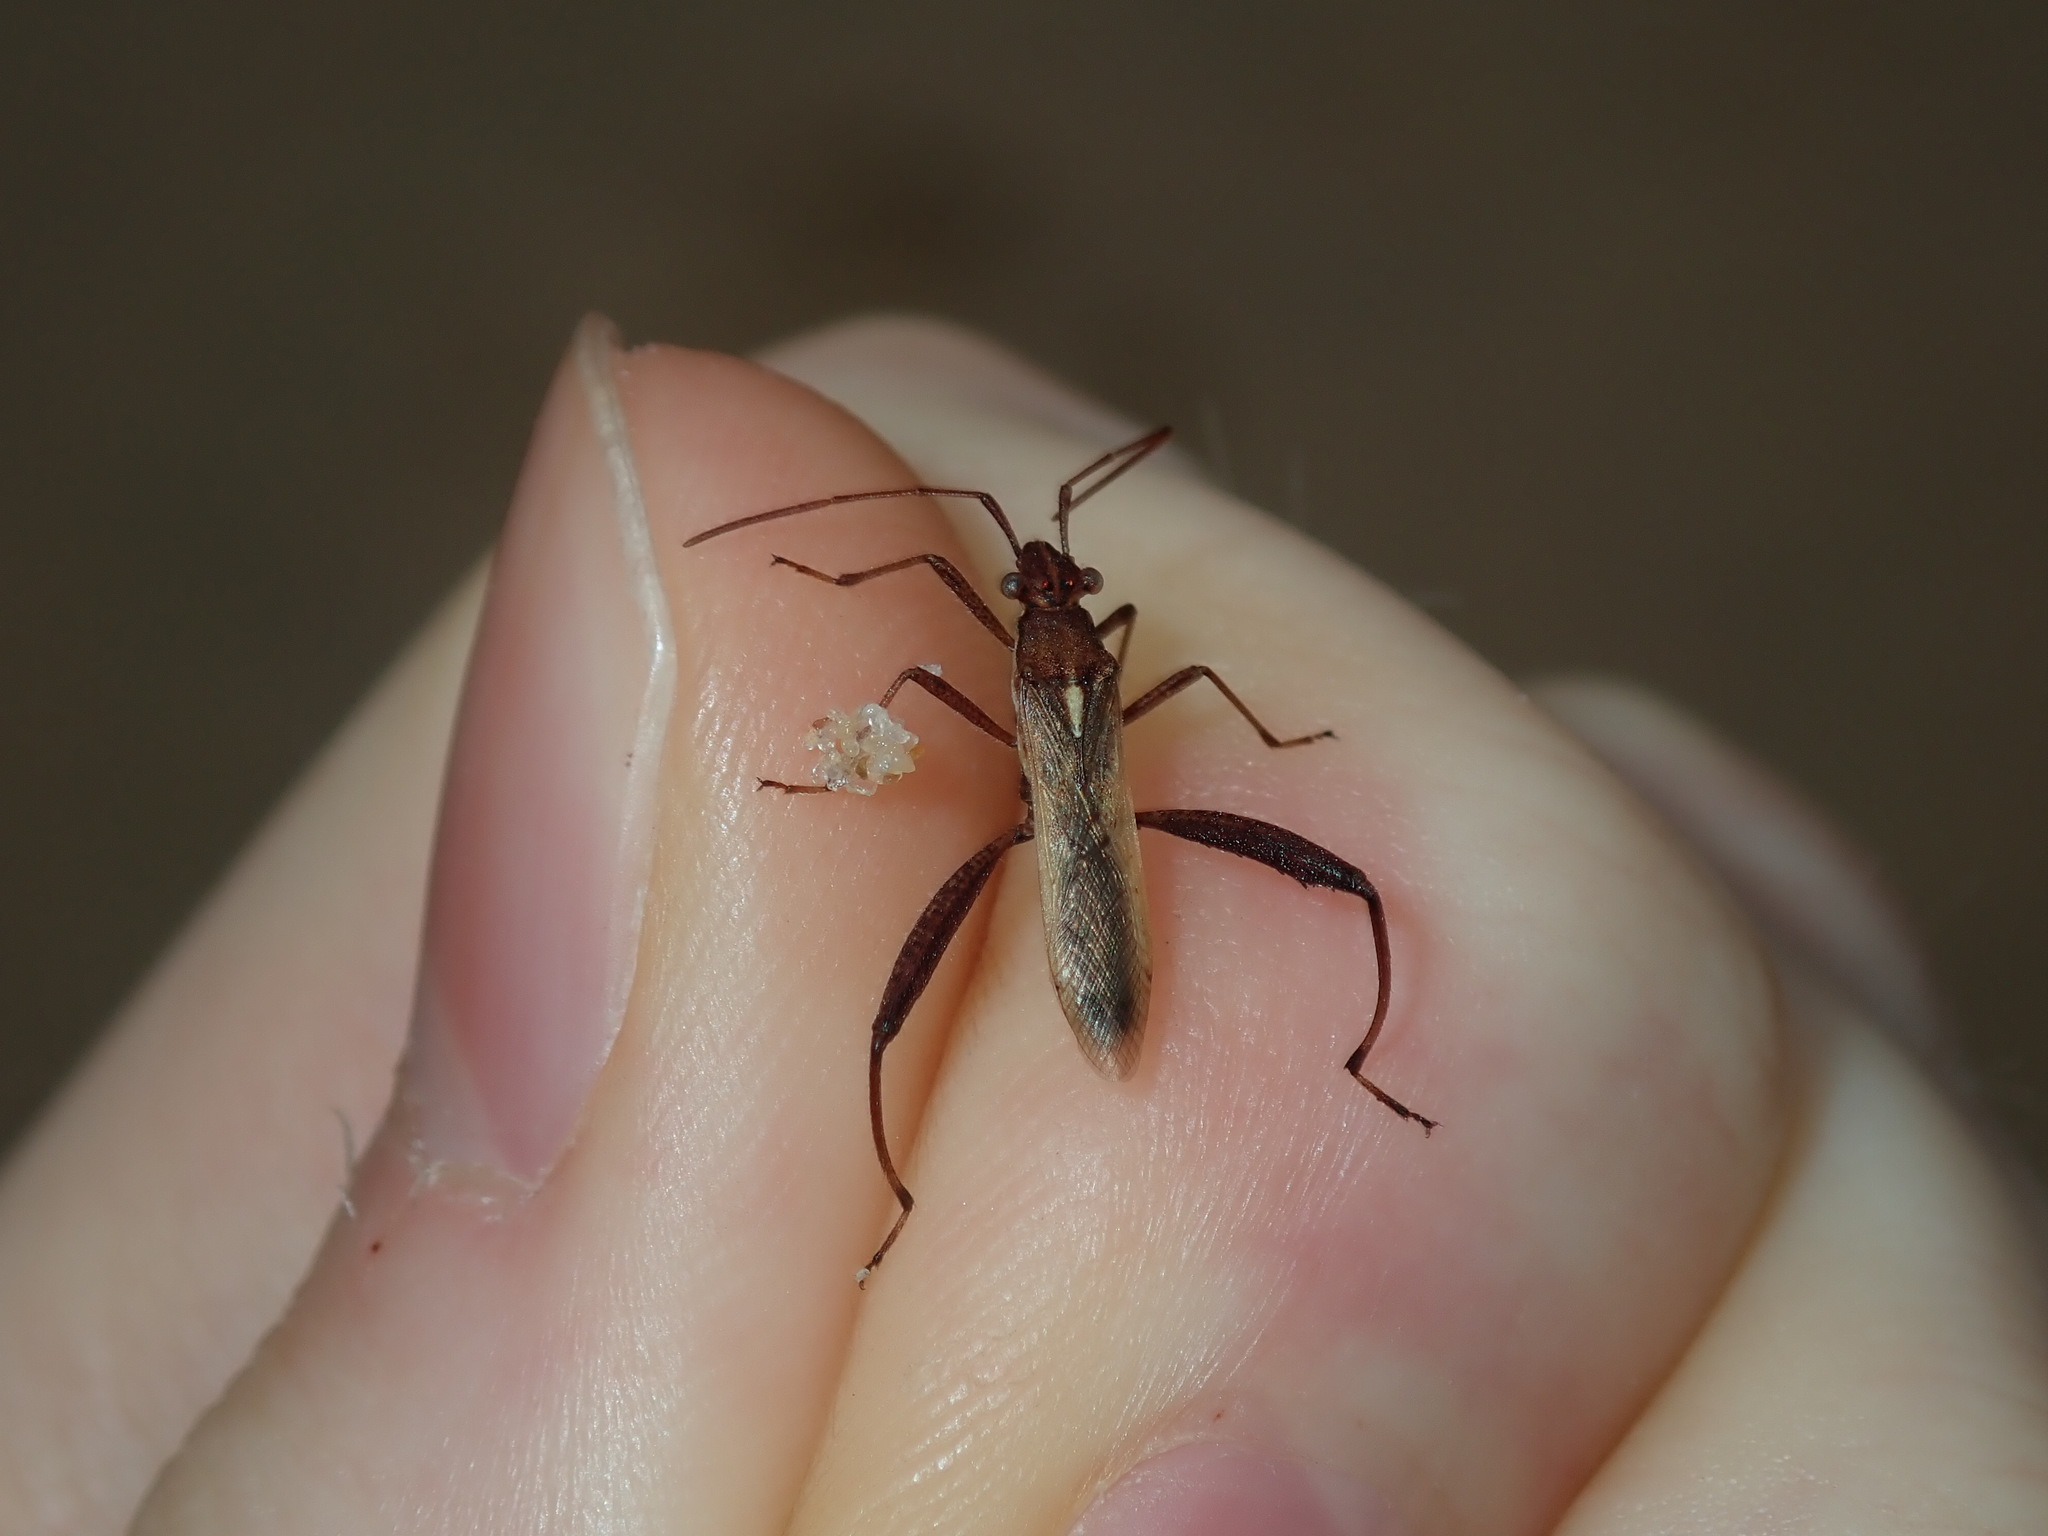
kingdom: Animalia
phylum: Arthropoda
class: Insecta
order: Hemiptera
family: Alydidae
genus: Melanacanthus
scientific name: Melanacanthus scutellaris
